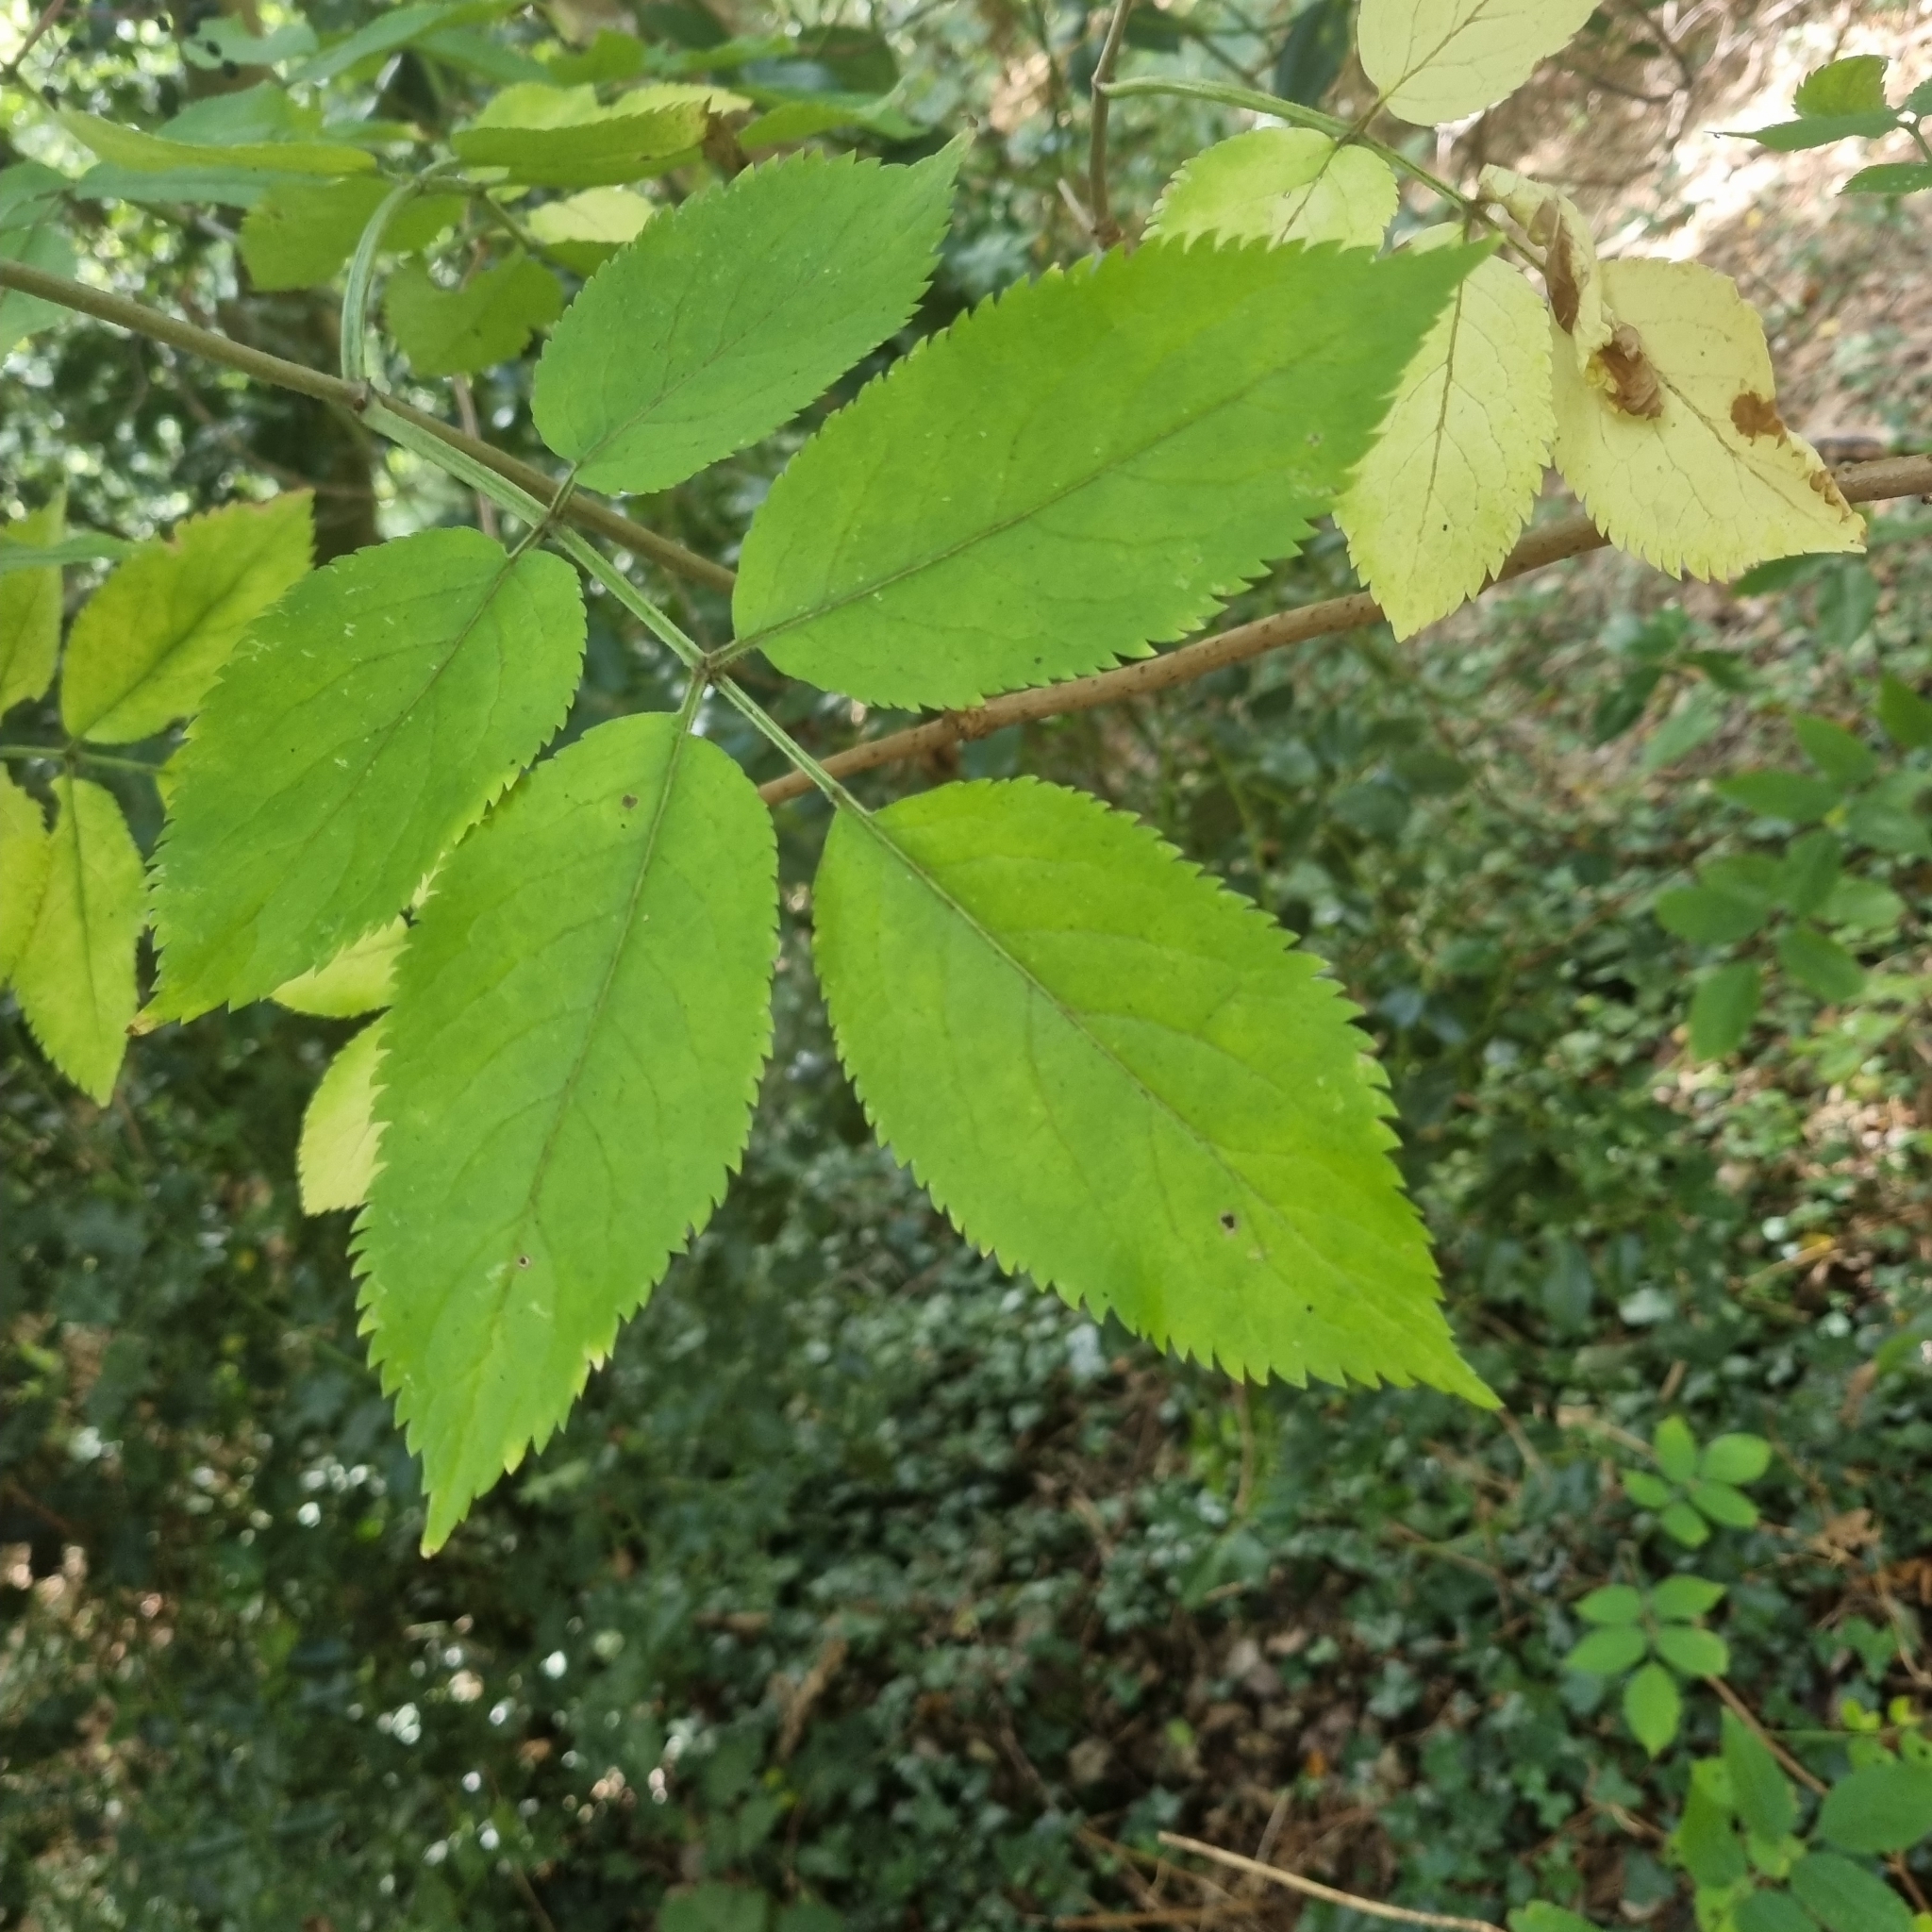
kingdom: Plantae
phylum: Tracheophyta
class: Magnoliopsida
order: Dipsacales
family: Viburnaceae
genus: Sambucus
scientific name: Sambucus nigra
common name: Elder
